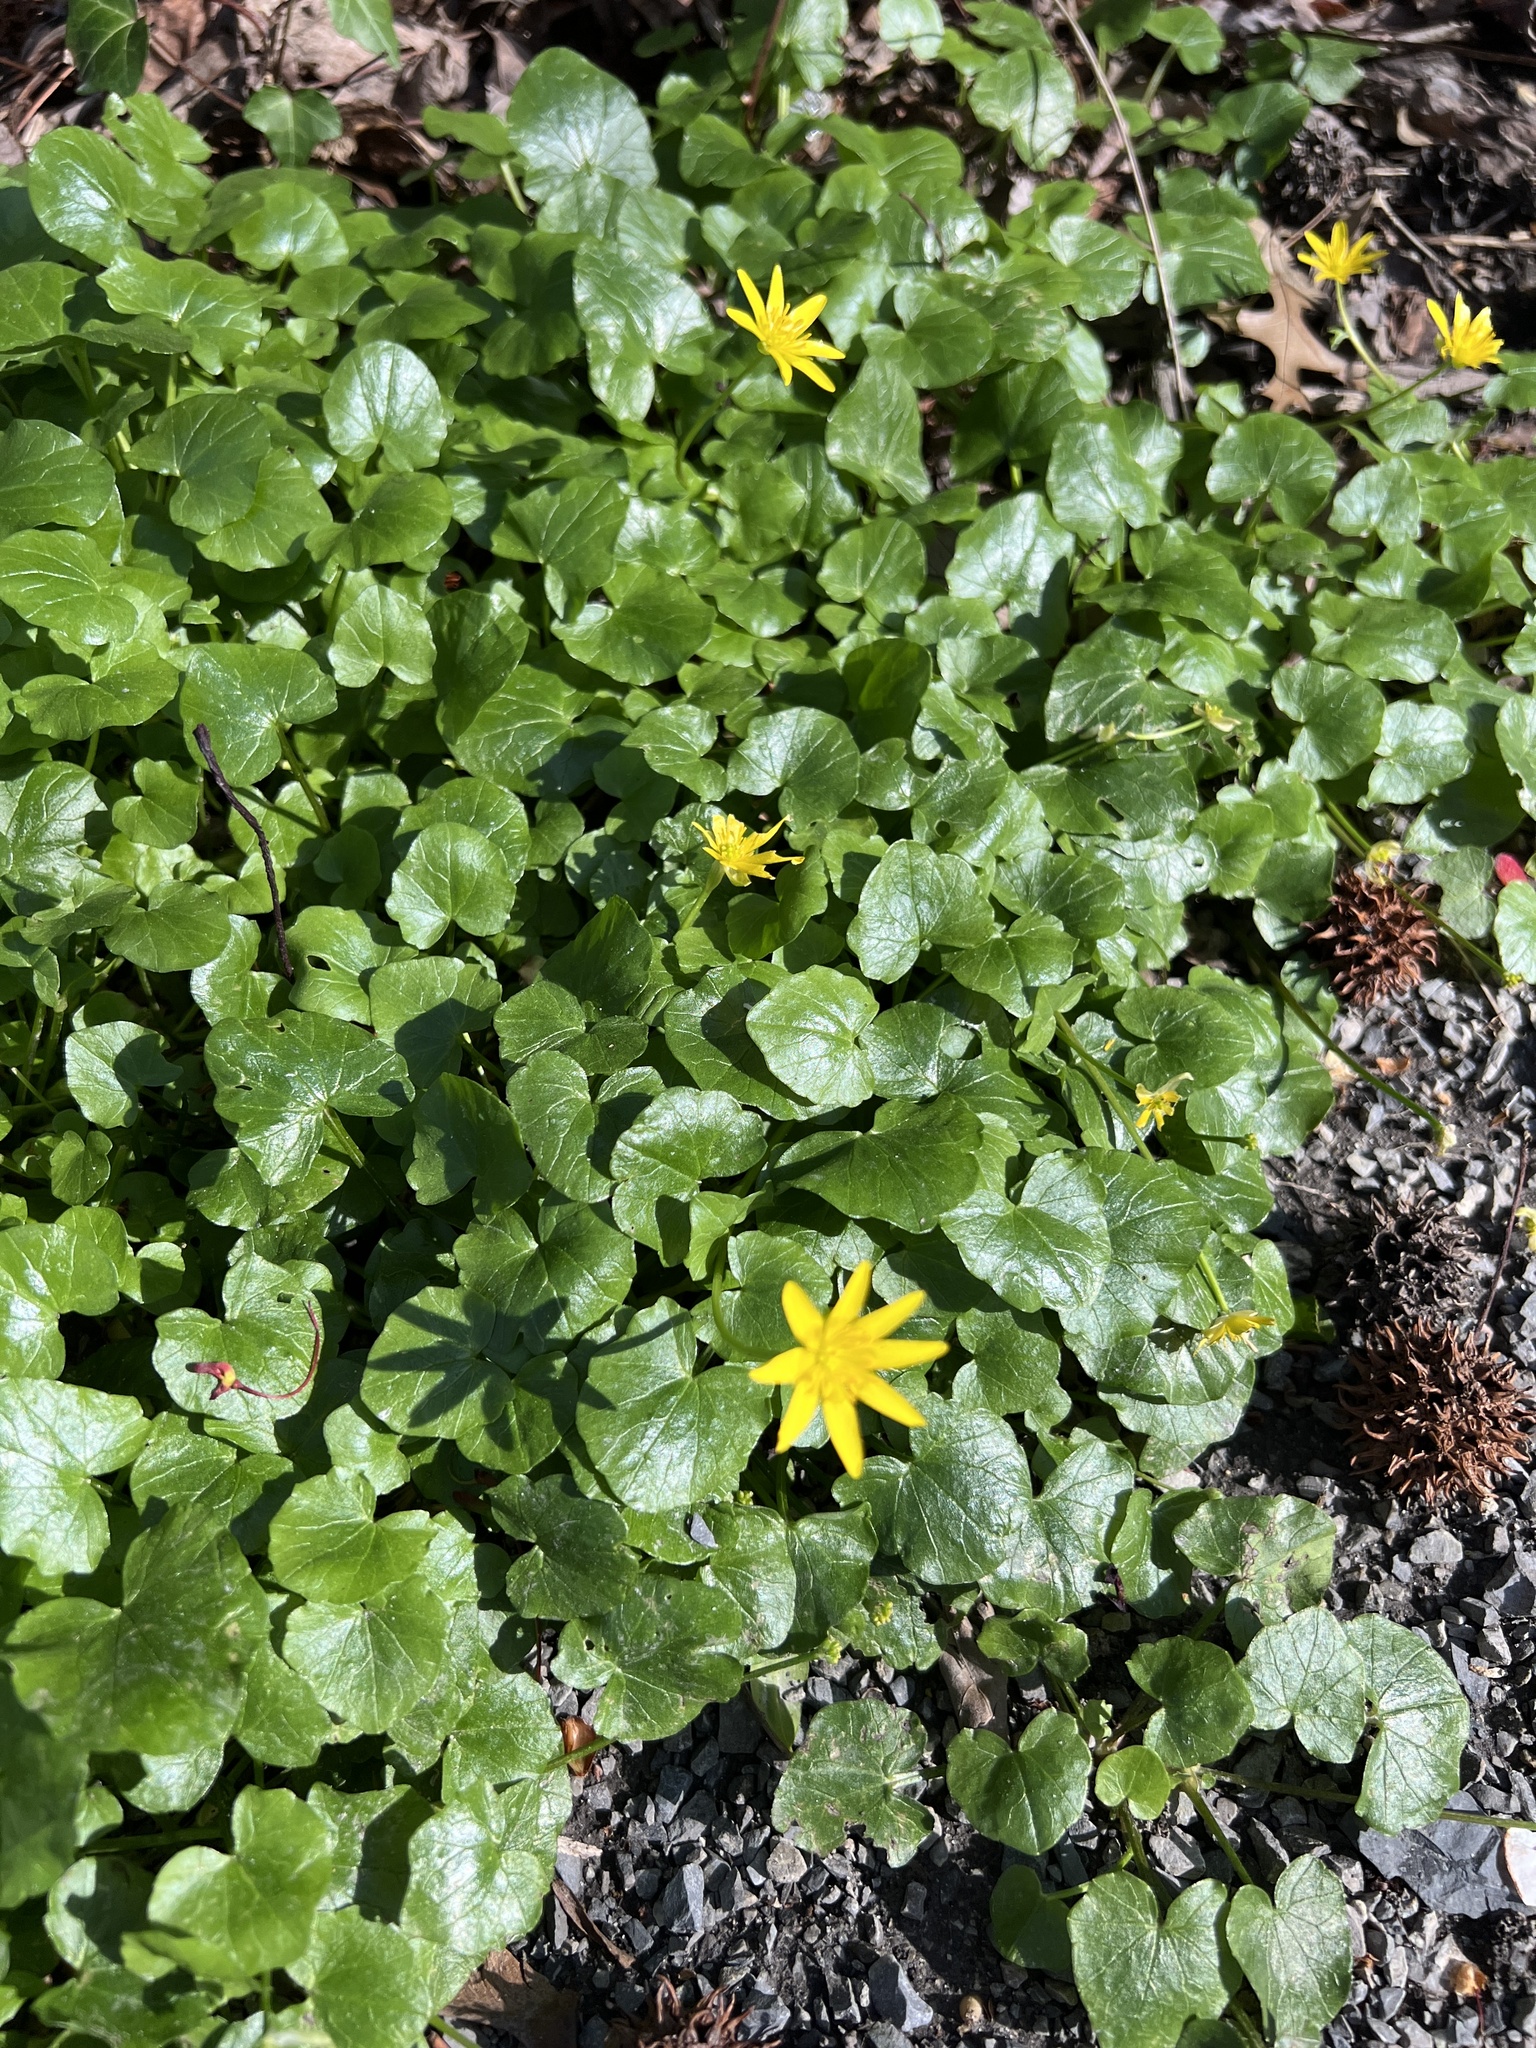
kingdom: Plantae
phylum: Tracheophyta
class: Magnoliopsida
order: Ranunculales
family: Ranunculaceae
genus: Ficaria
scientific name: Ficaria verna
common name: Lesser celandine
